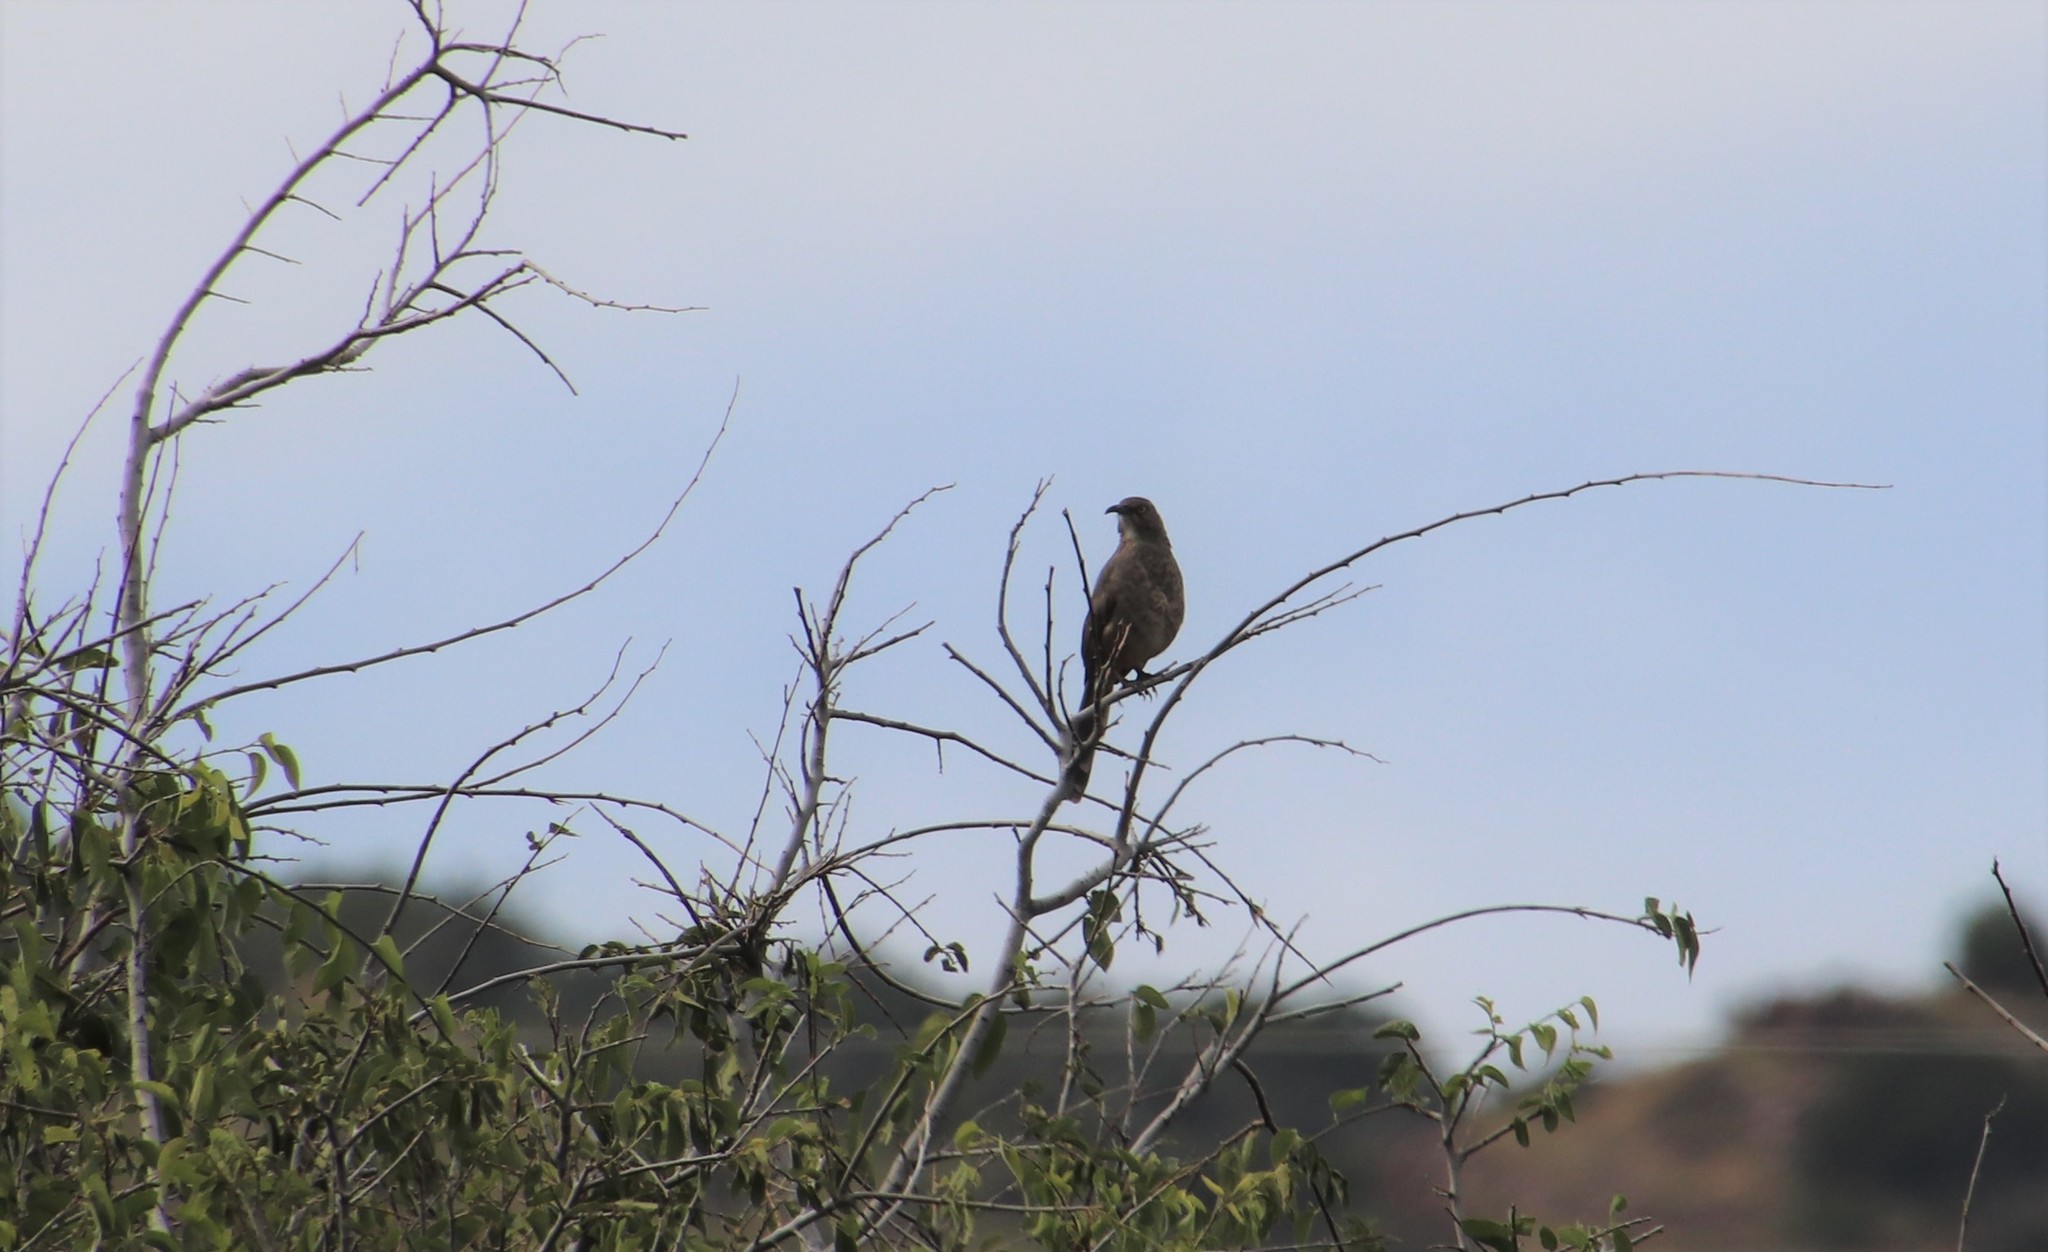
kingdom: Animalia
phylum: Chordata
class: Aves
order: Passeriformes
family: Mimidae
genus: Toxostoma
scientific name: Toxostoma curvirostre
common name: Curve-billed thrasher
